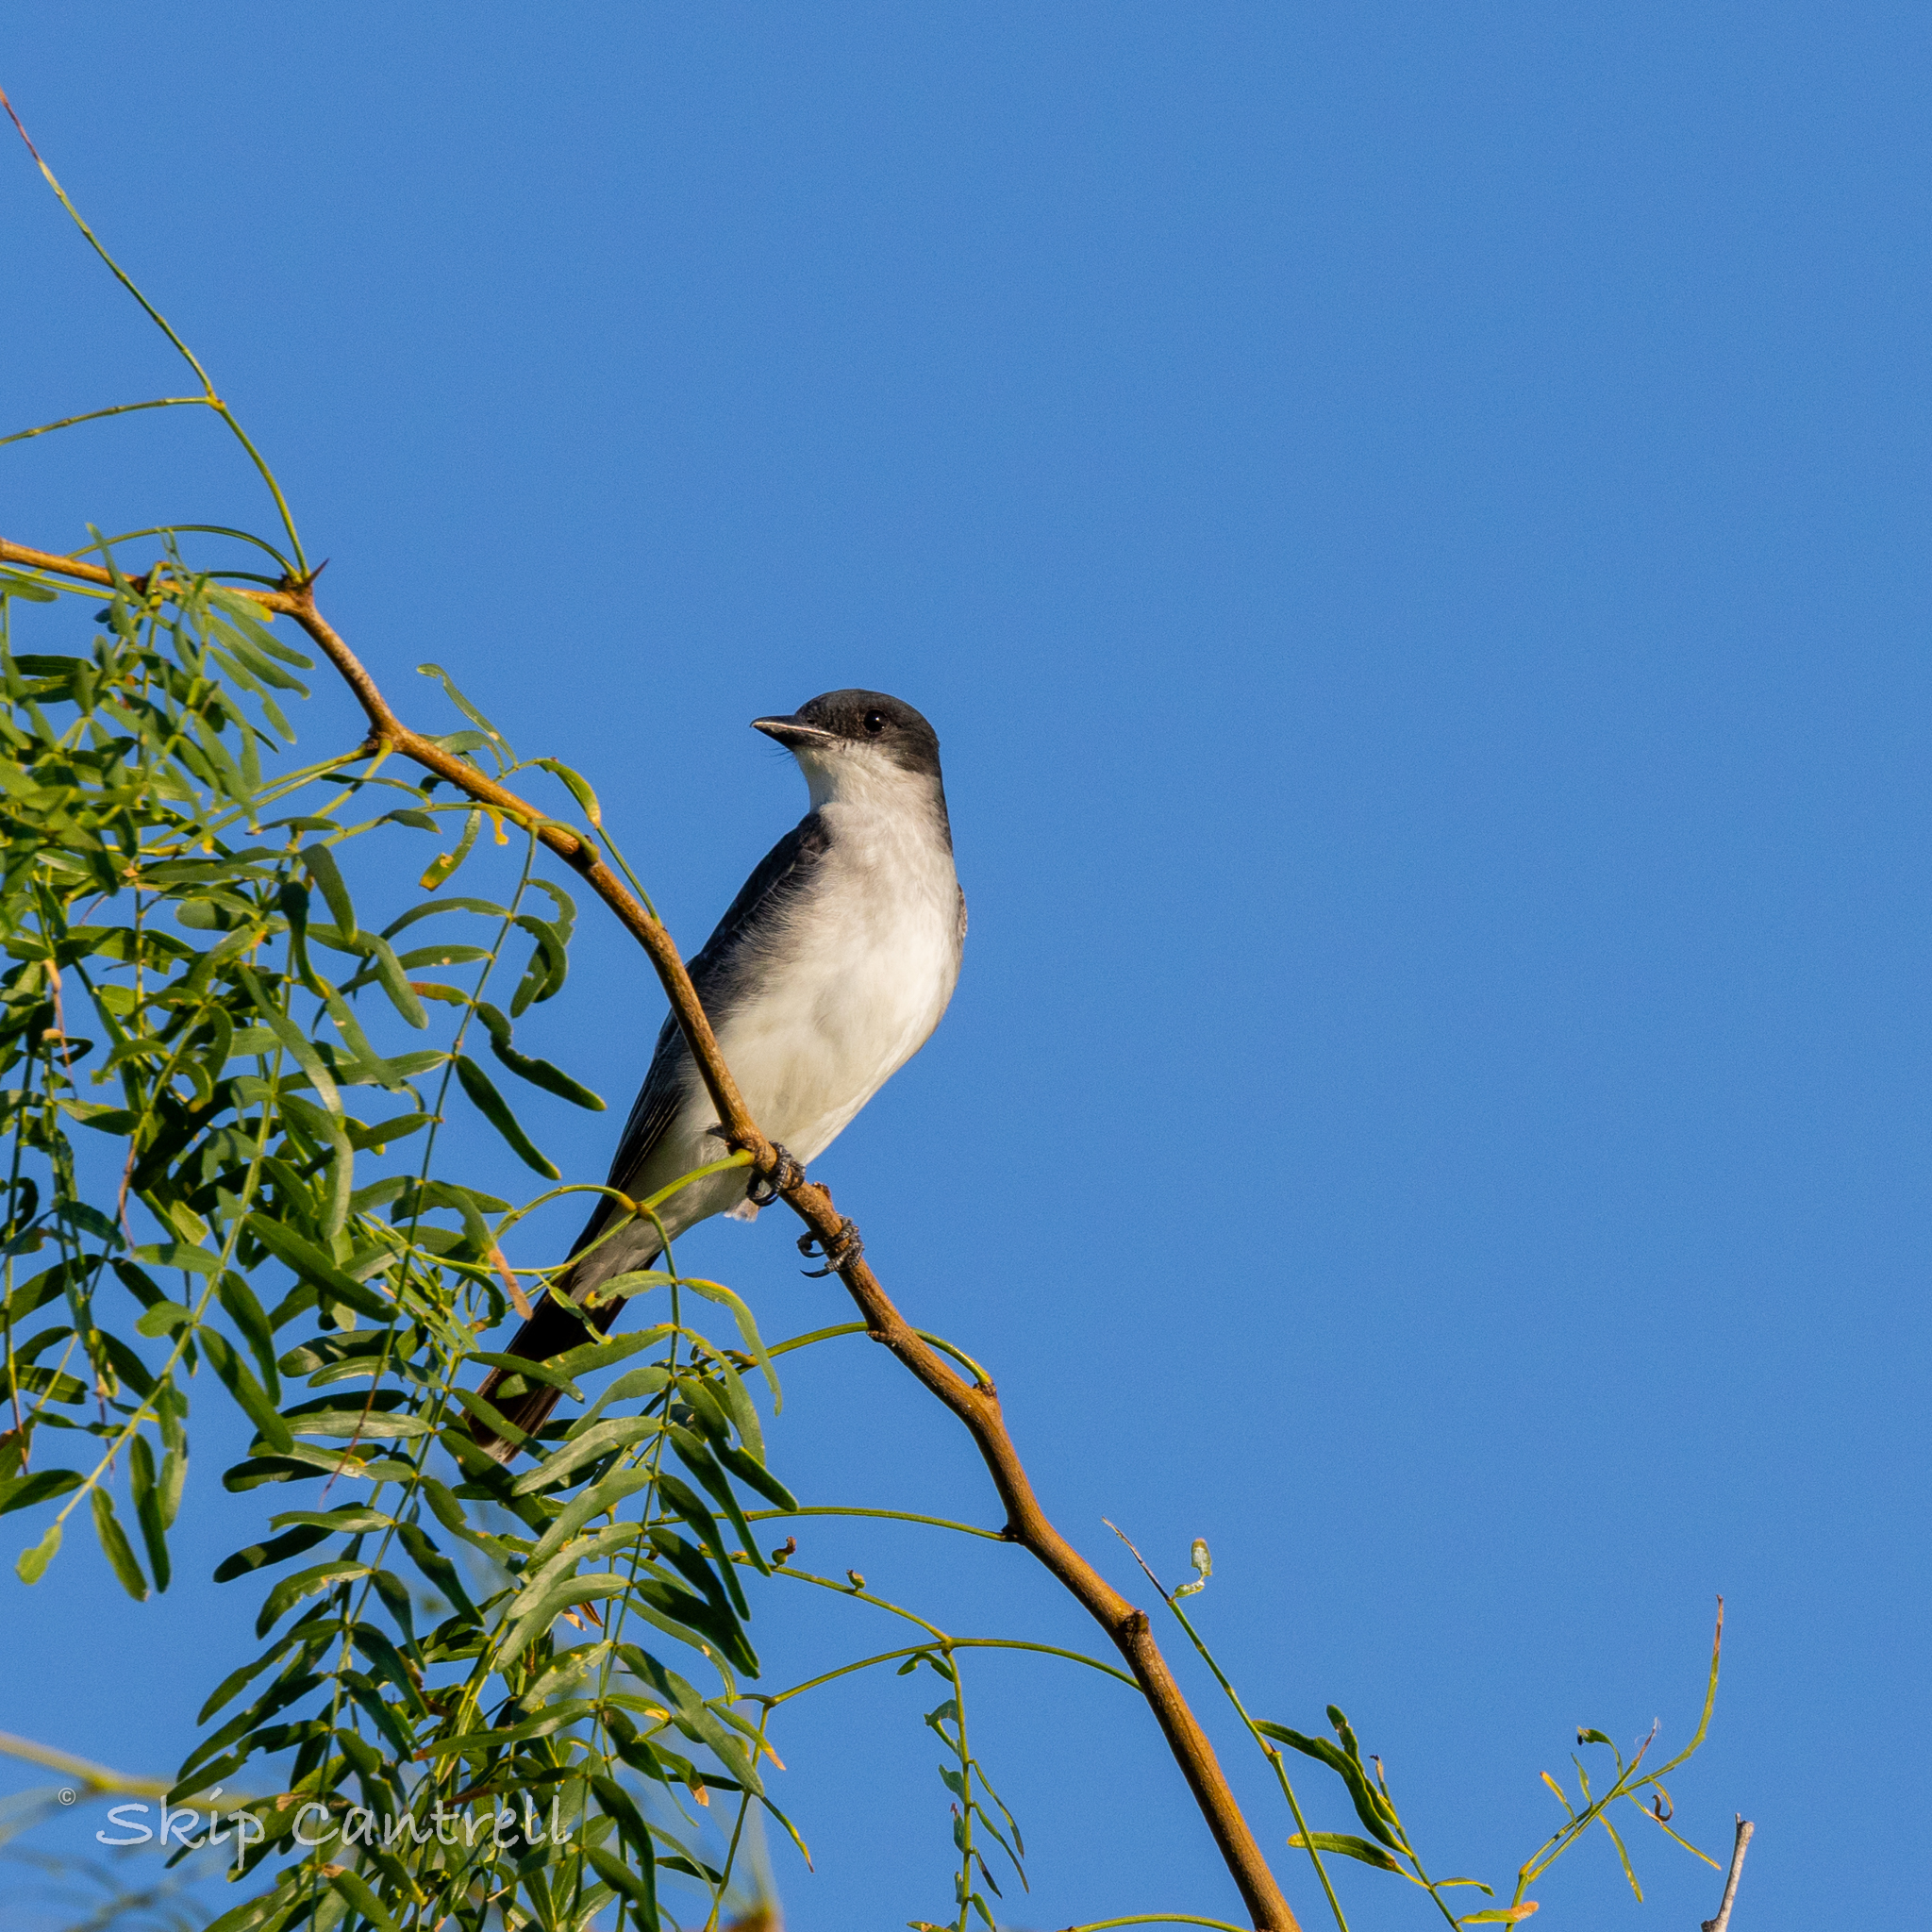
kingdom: Animalia
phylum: Chordata
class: Aves
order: Passeriformes
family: Tyrannidae
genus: Tyrannus
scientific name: Tyrannus tyrannus
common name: Eastern kingbird
